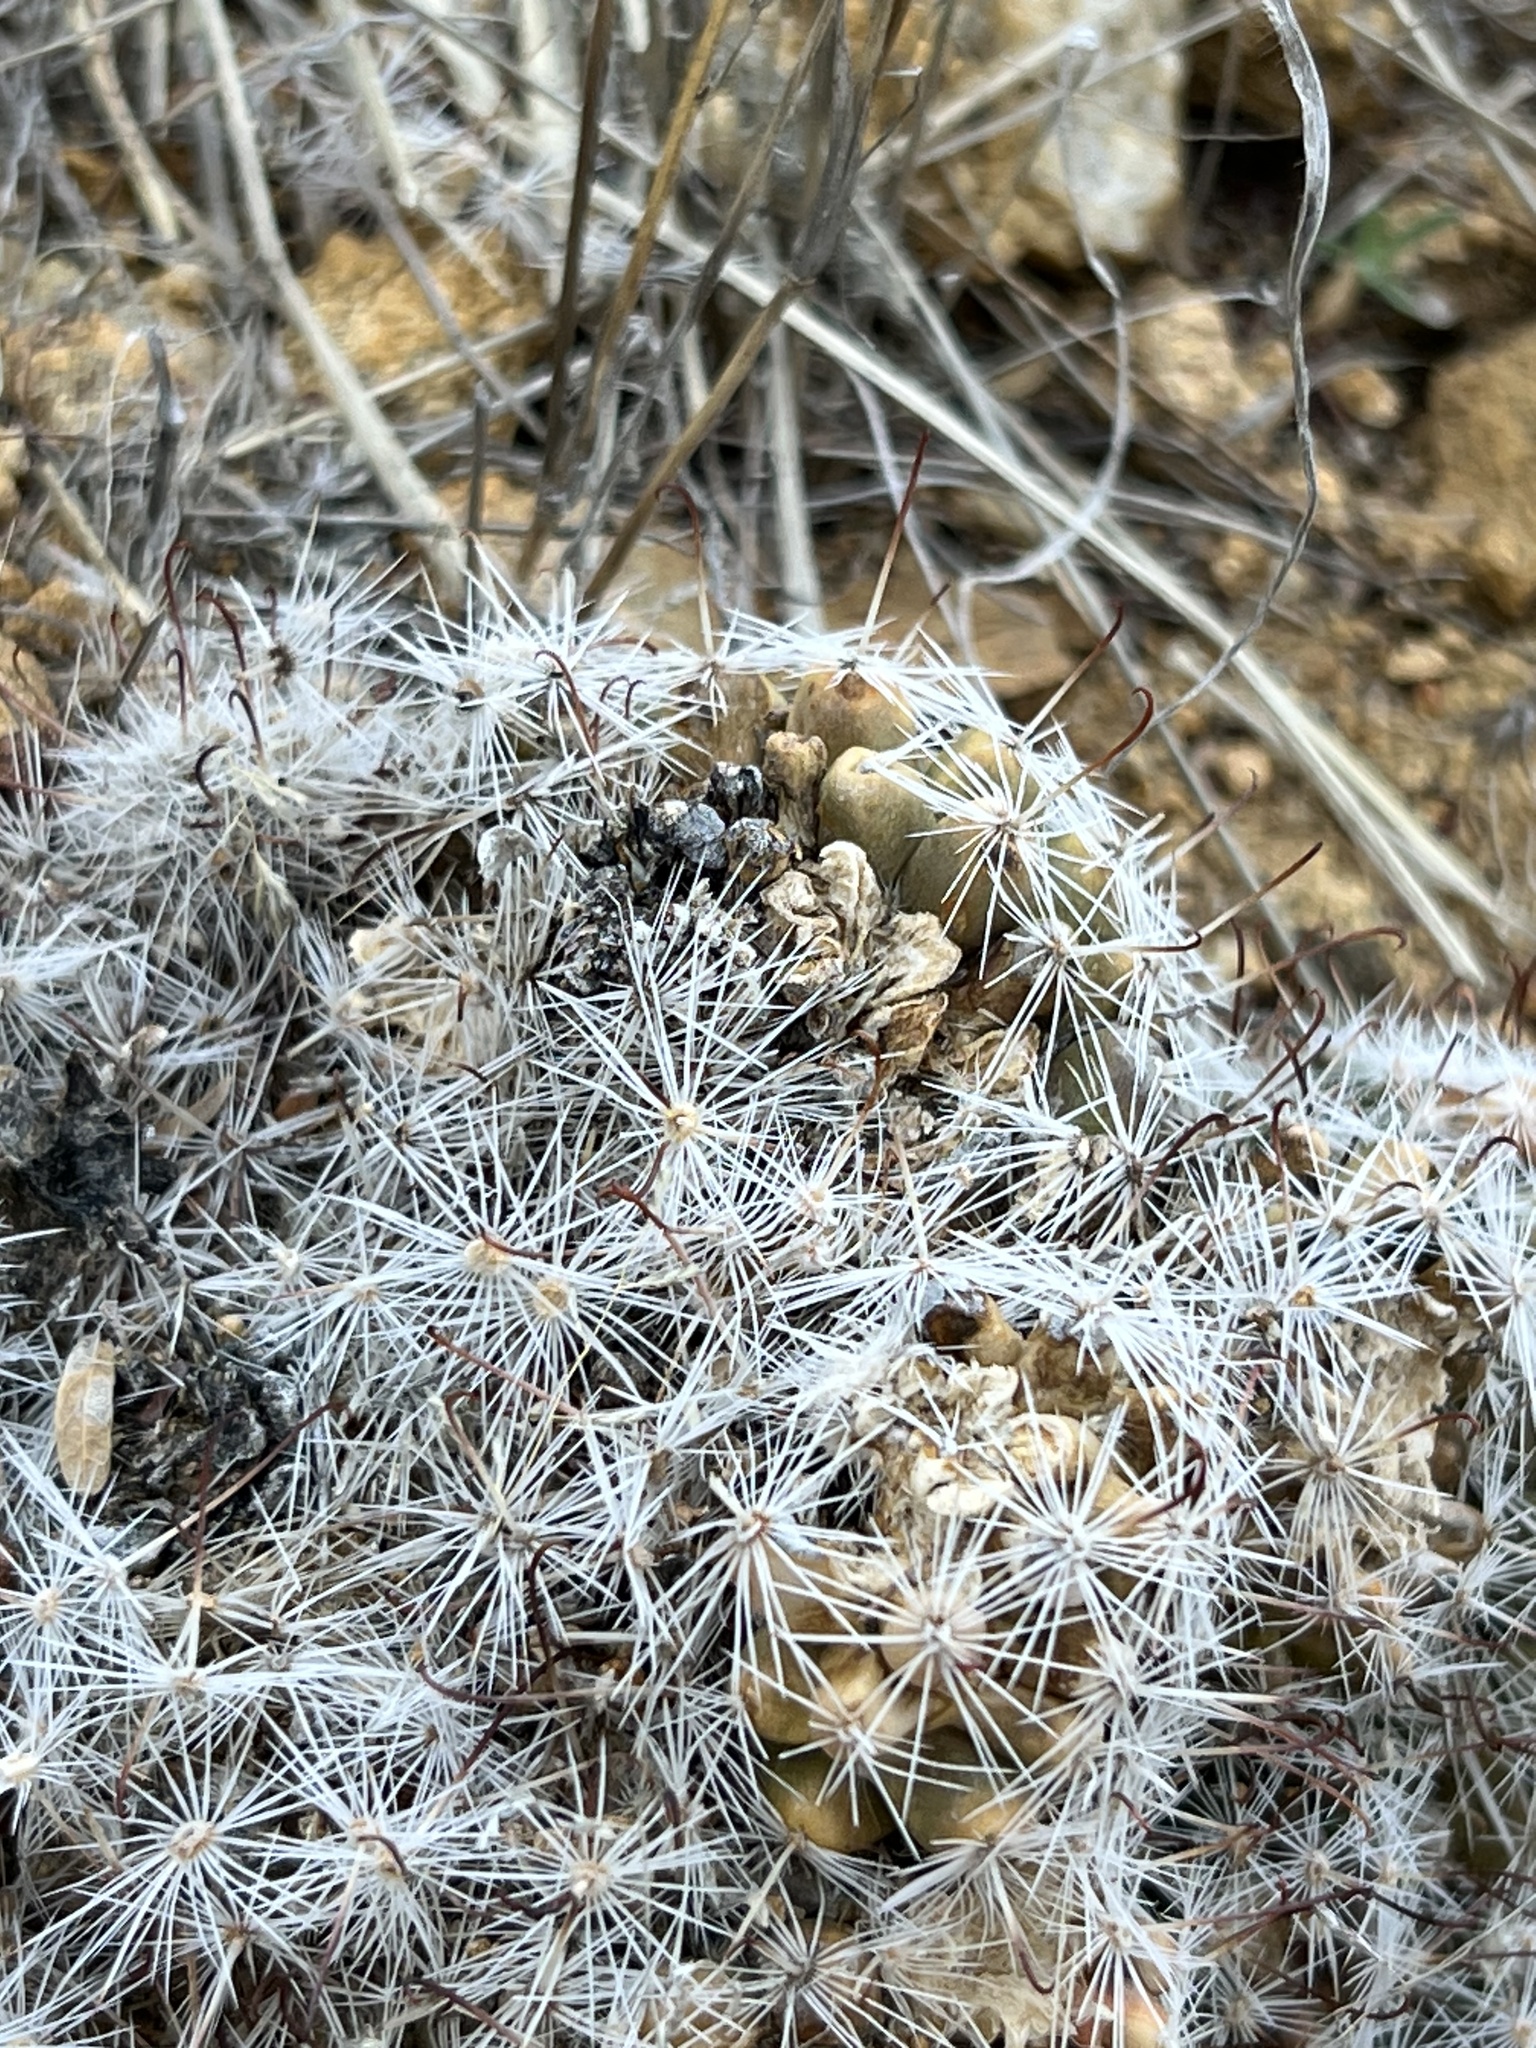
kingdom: Plantae
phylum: Tracheophyta
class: Magnoliopsida
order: Caryophyllales
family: Cactaceae
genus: Cochemiea
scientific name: Cochemiea grahamii
